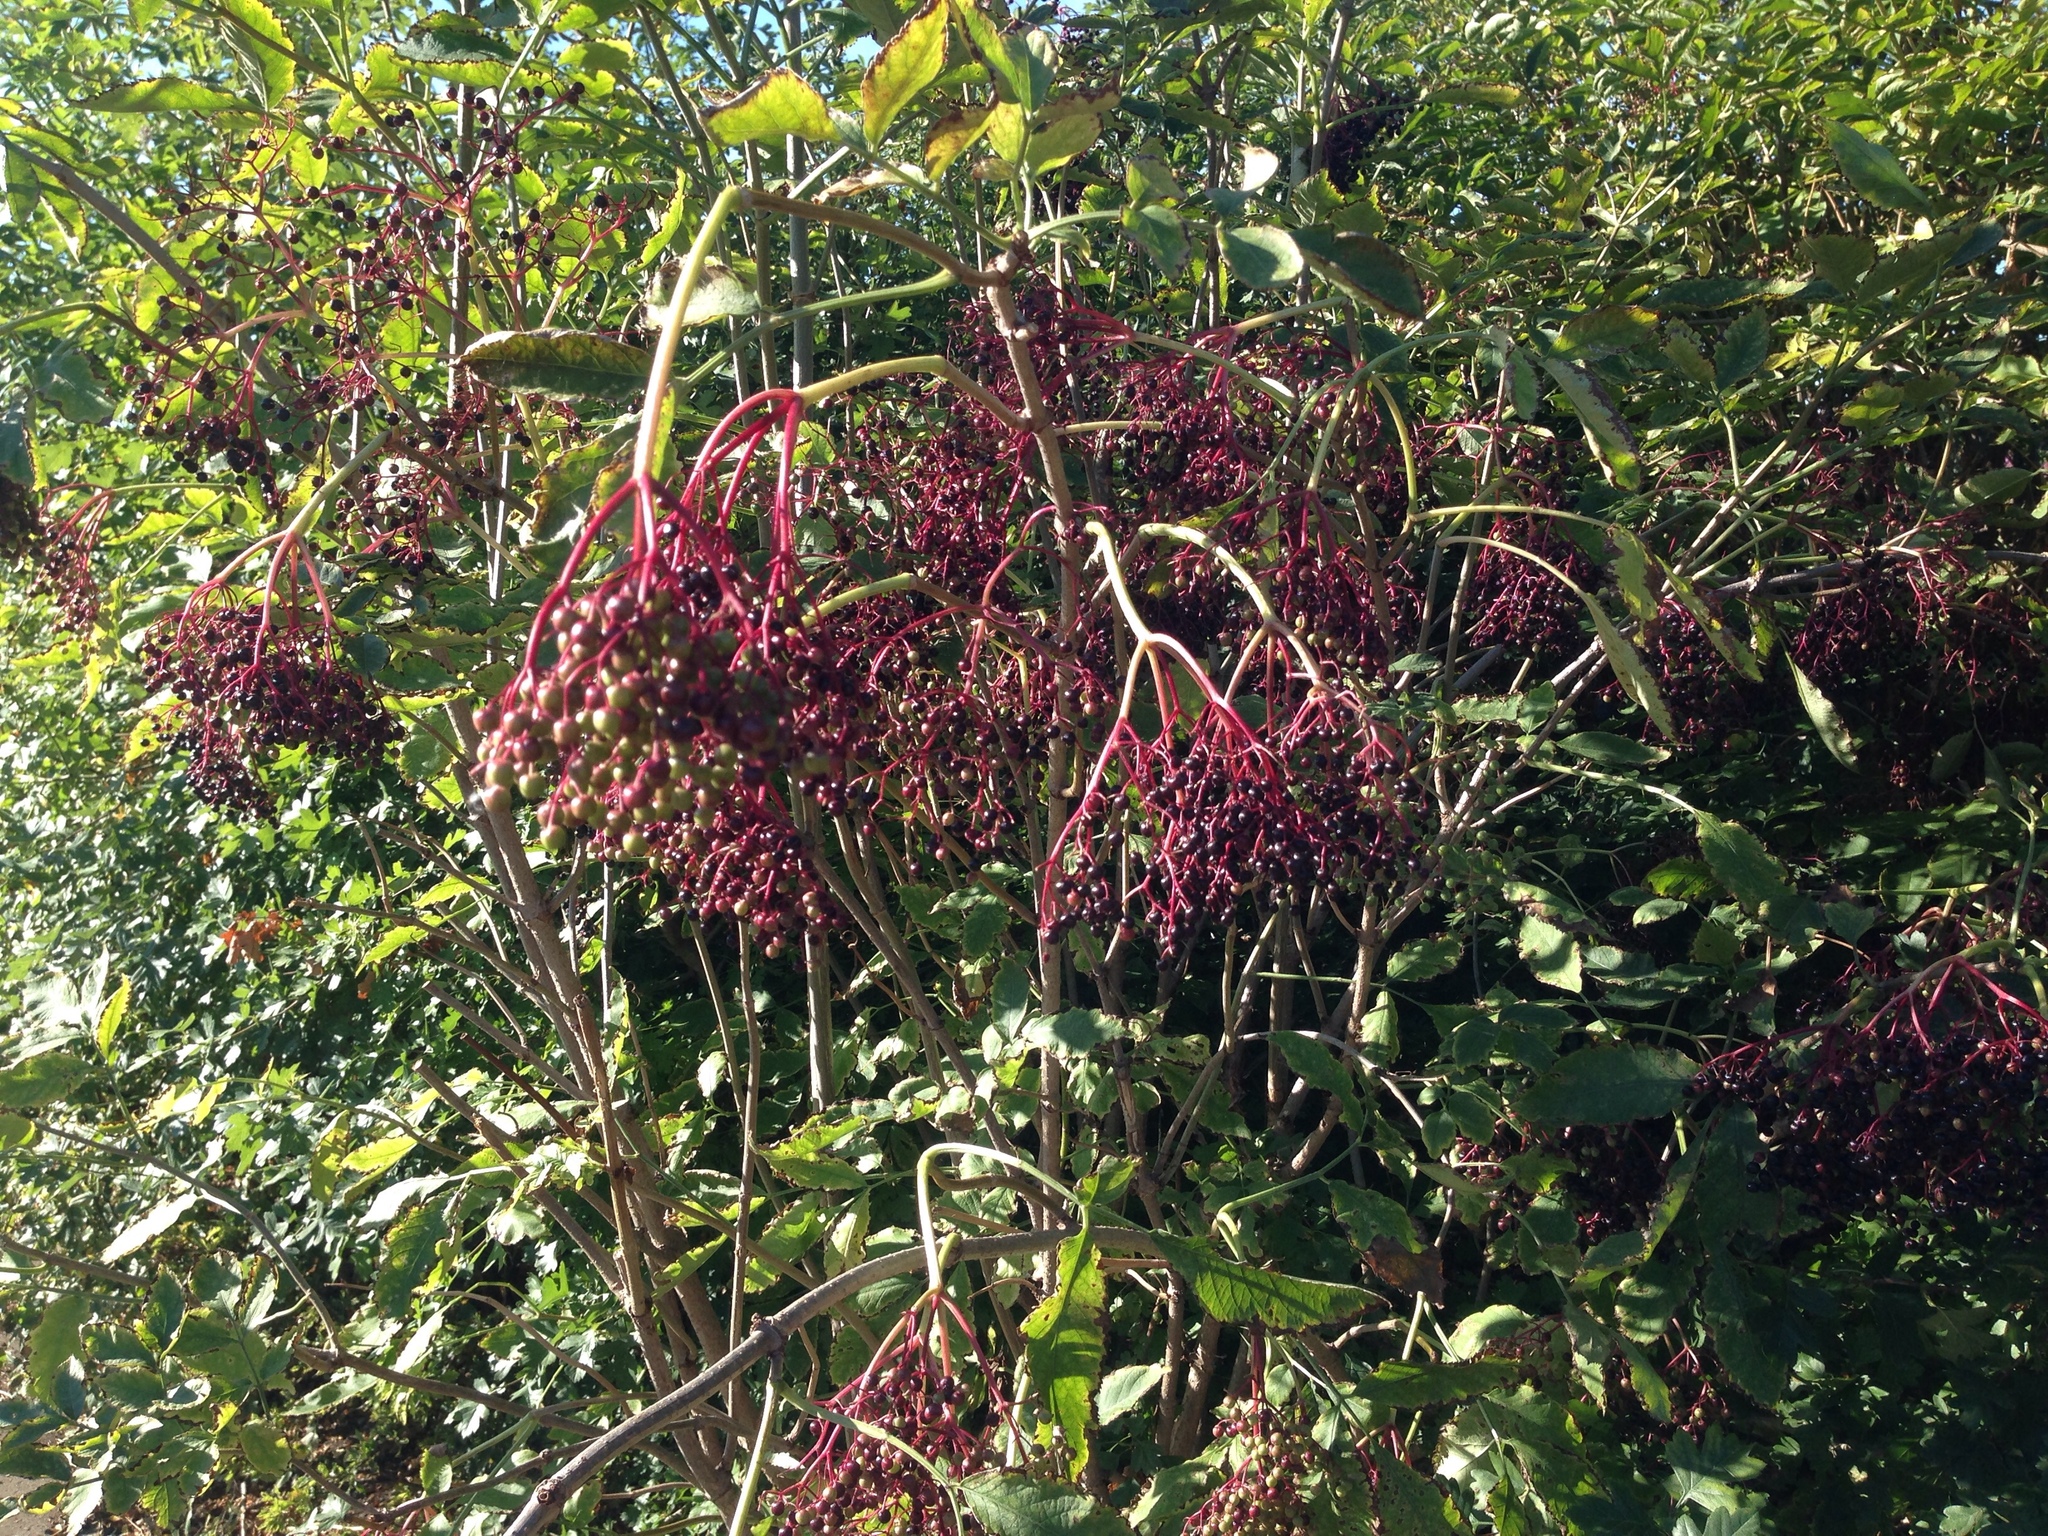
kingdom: Plantae
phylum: Tracheophyta
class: Magnoliopsida
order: Dipsacales
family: Viburnaceae
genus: Sambucus
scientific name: Sambucus nigra
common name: Elder
